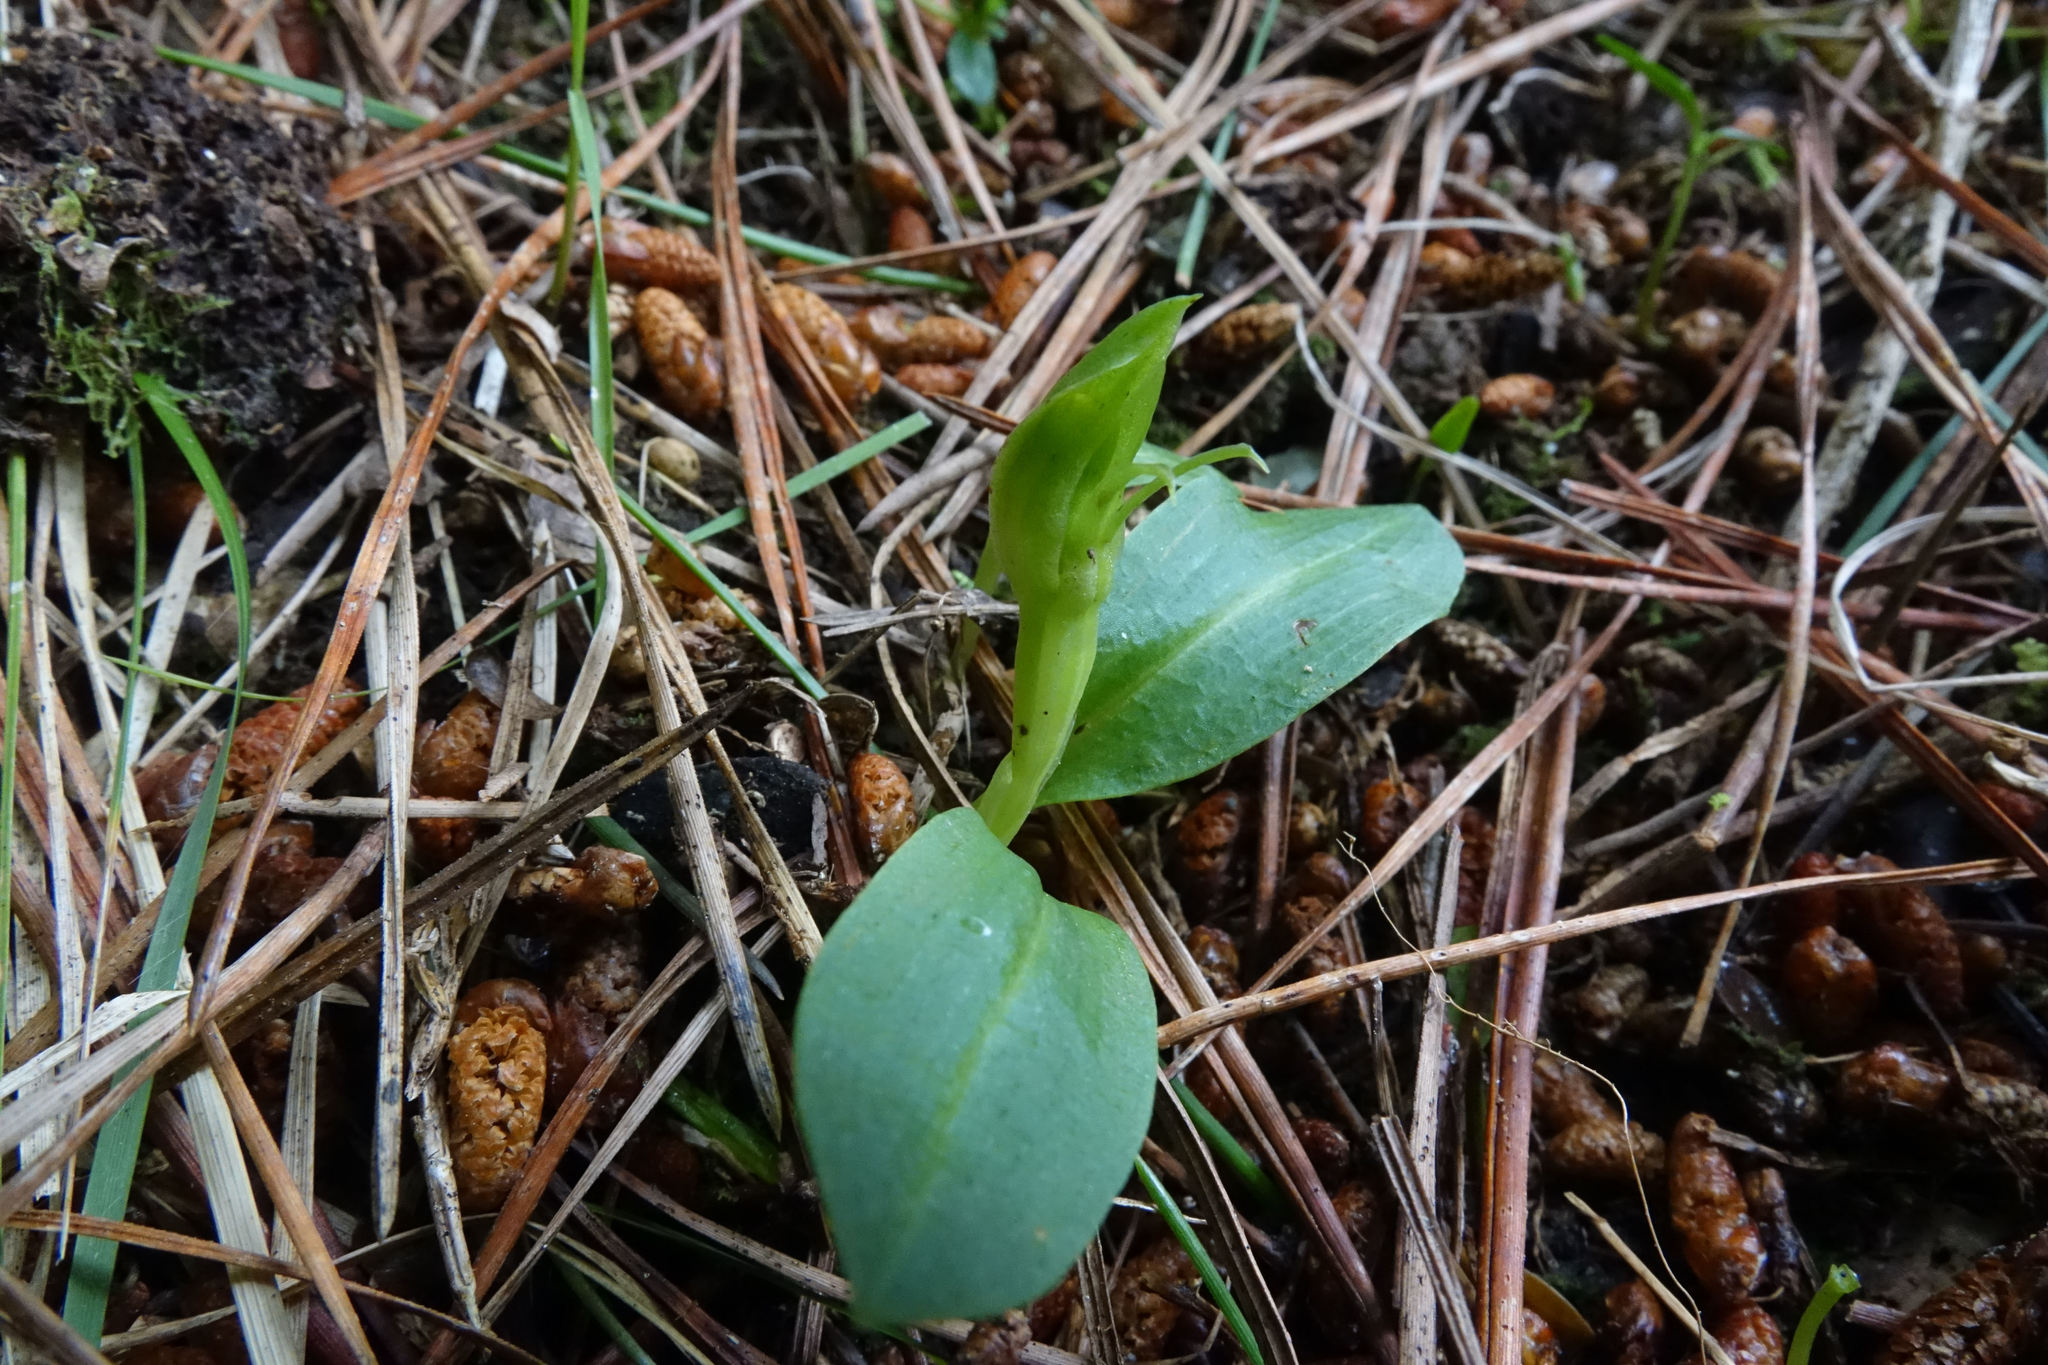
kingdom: Plantae
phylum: Tracheophyta
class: Liliopsida
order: Asparagales
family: Orchidaceae
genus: Chiloglottis
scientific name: Chiloglottis cornuta
